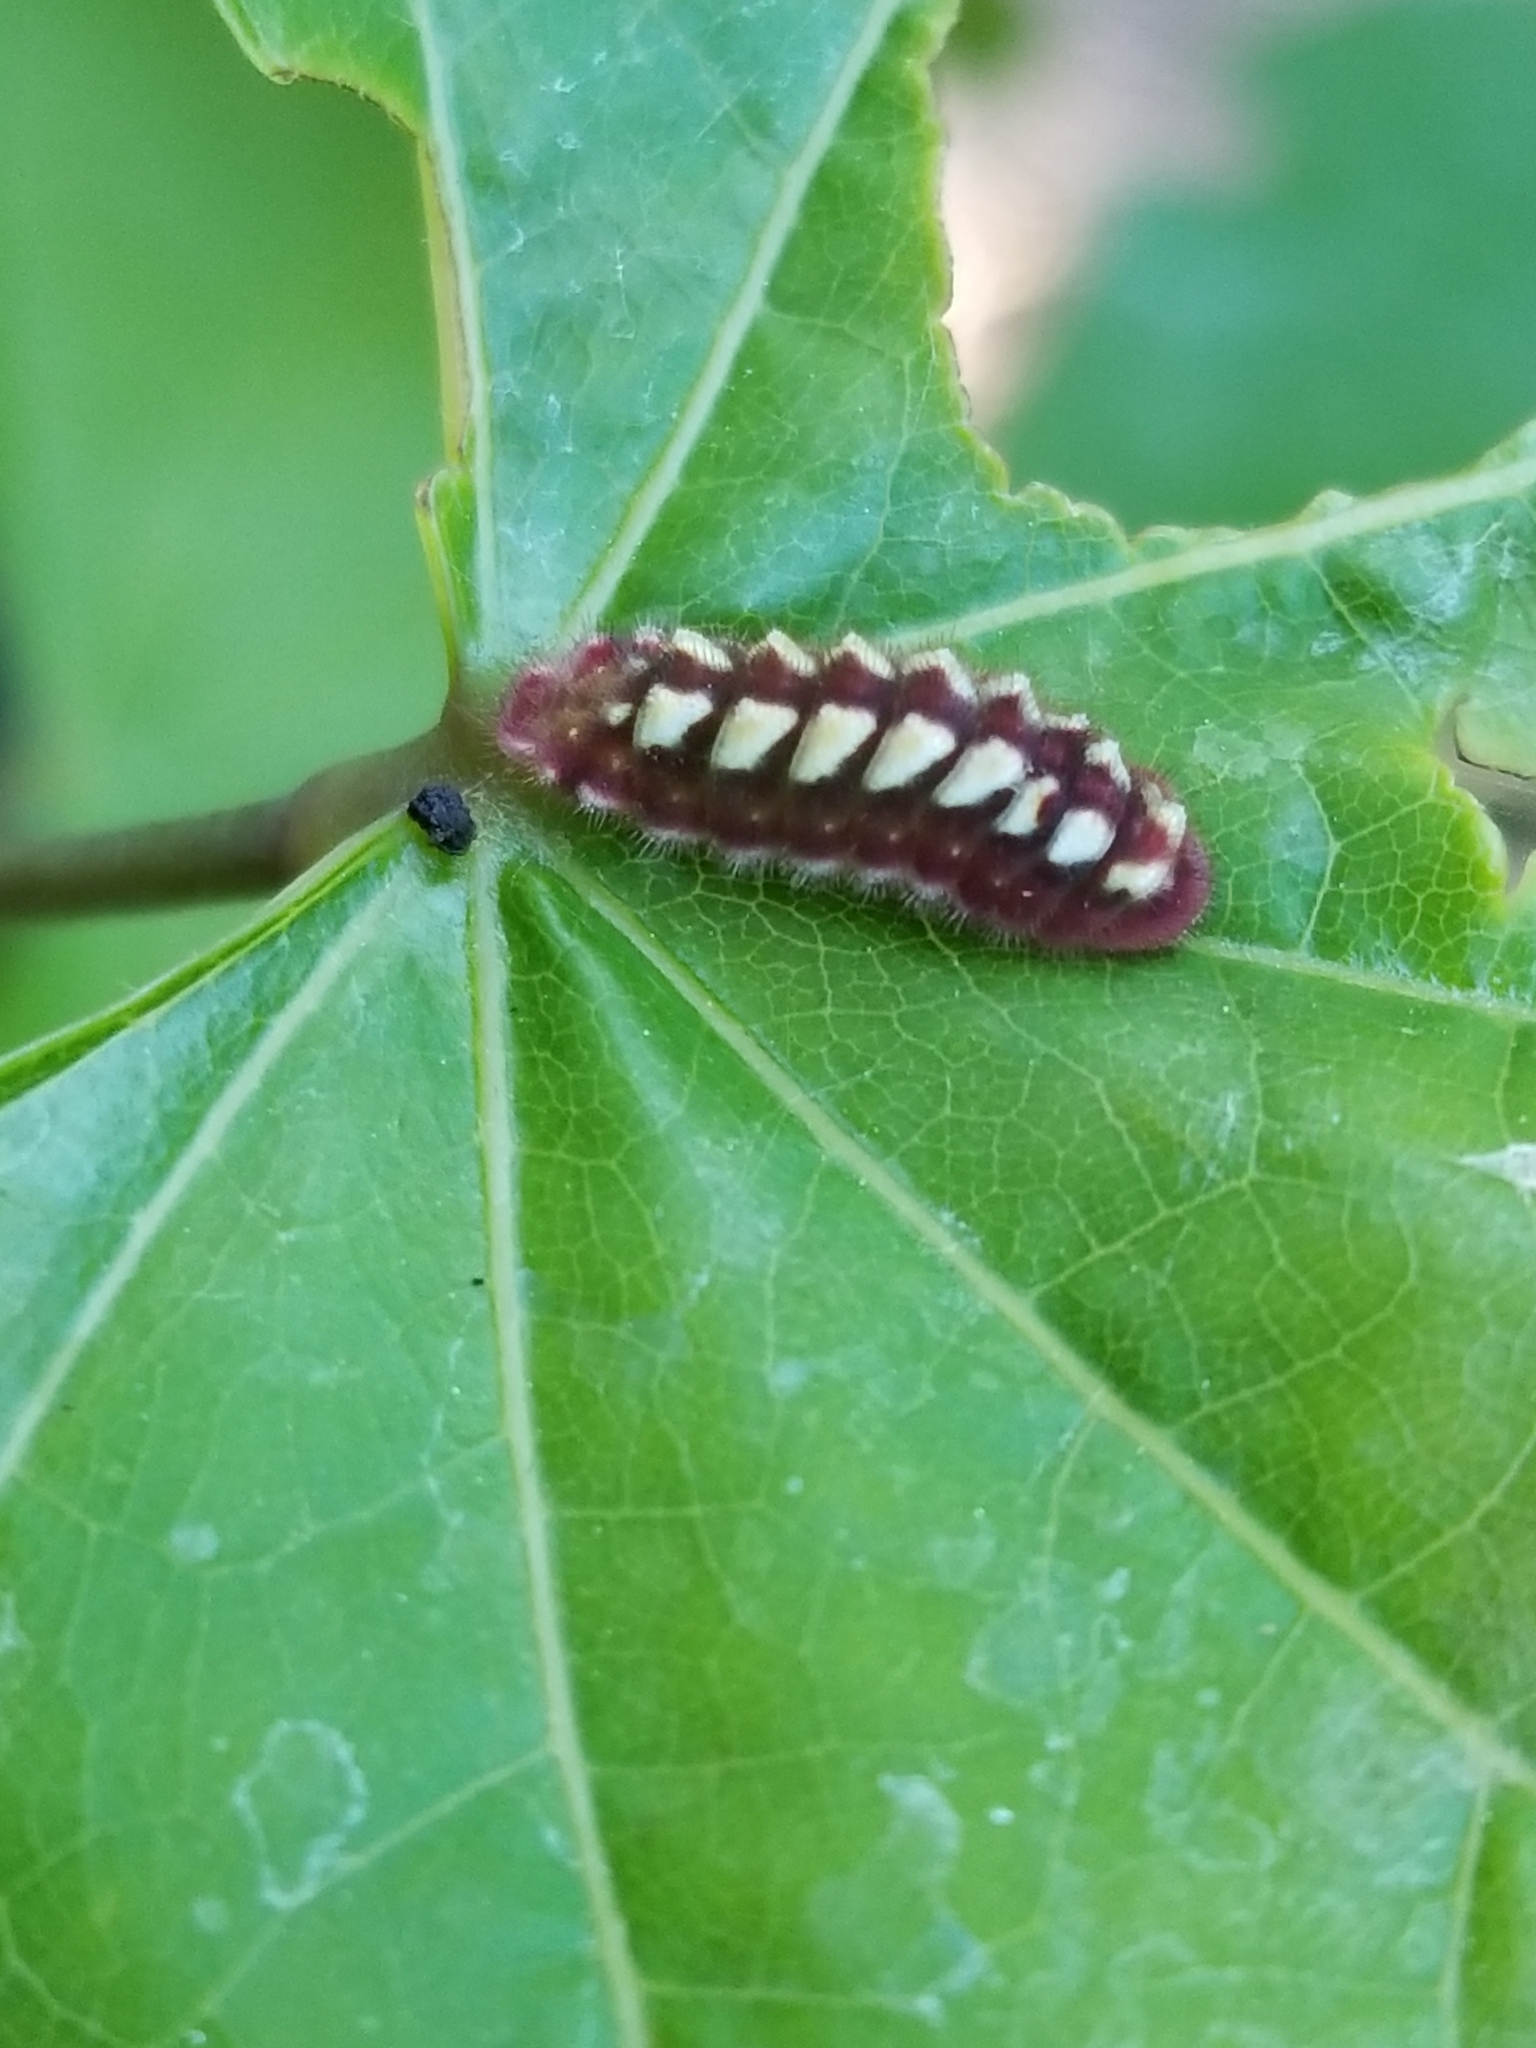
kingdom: Animalia
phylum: Arthropoda
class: Insecta
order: Lepidoptera
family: Lycaenidae
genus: Incisalia
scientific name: Incisalia henrici
